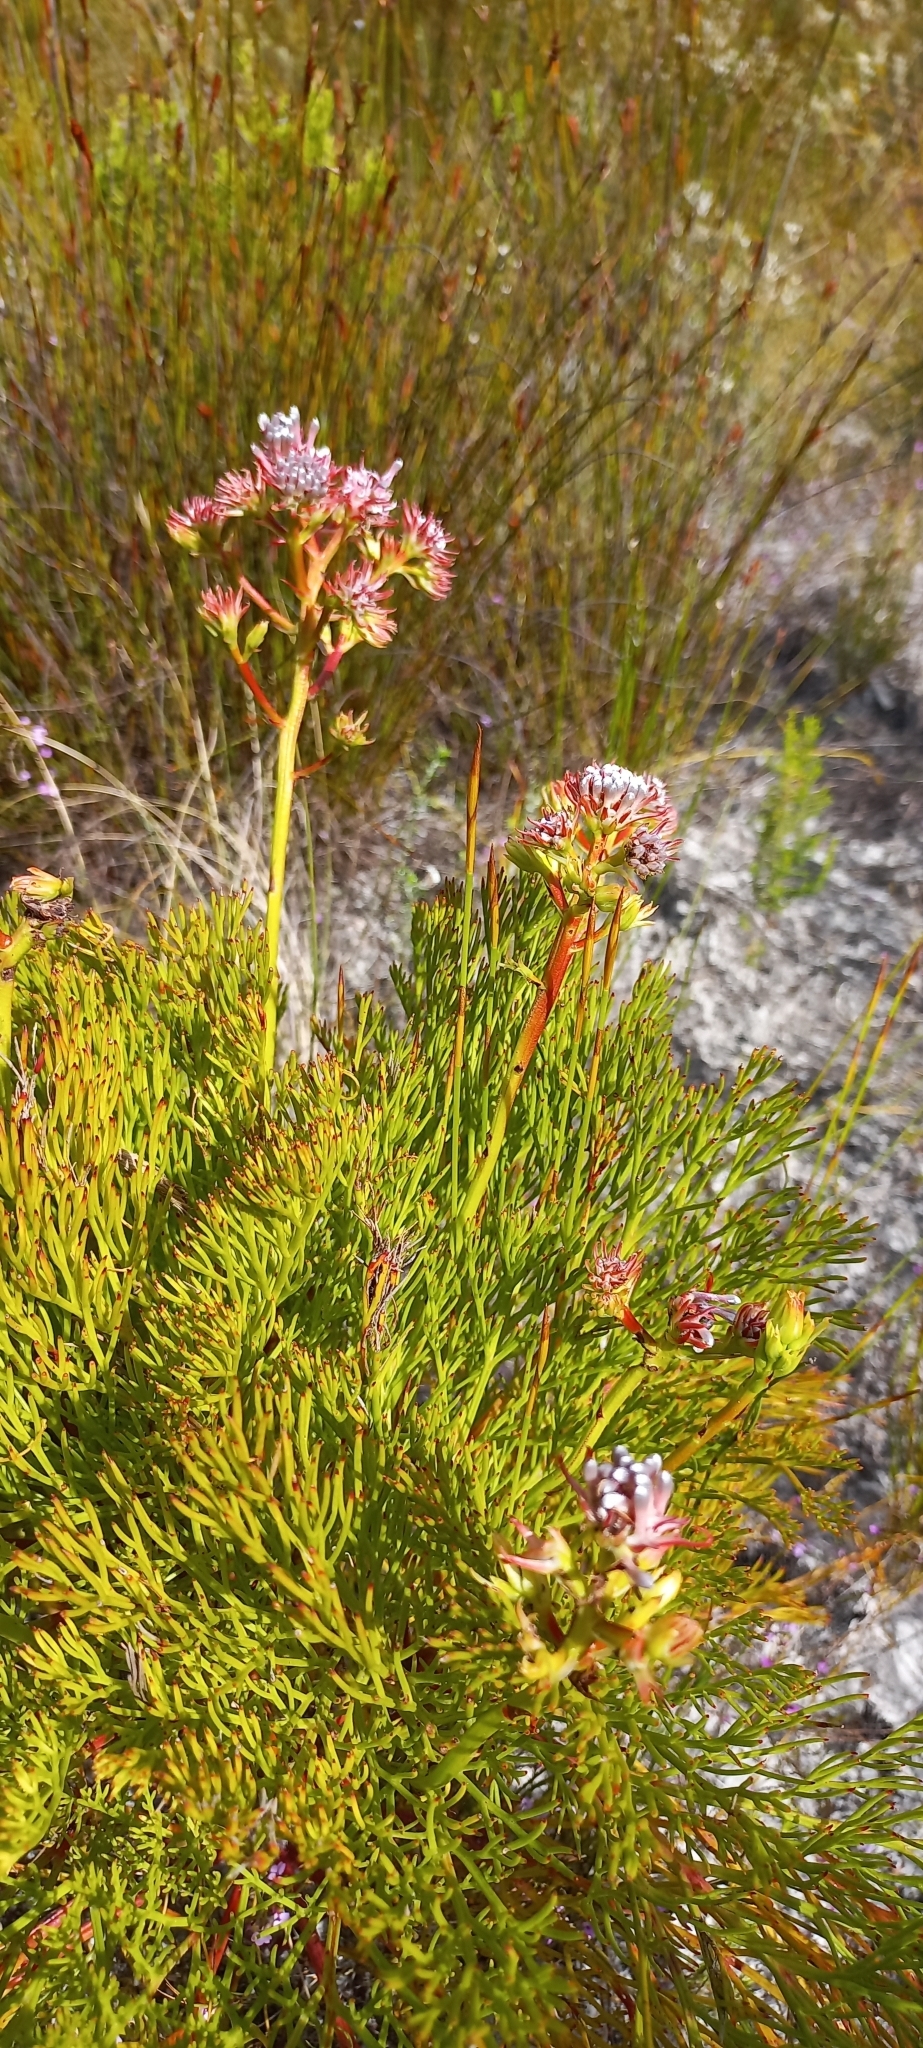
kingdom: Plantae
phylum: Tracheophyta
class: Magnoliopsida
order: Proteales
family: Proteaceae
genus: Serruria
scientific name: Serruria elongata
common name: Long-stalk spiderhead
